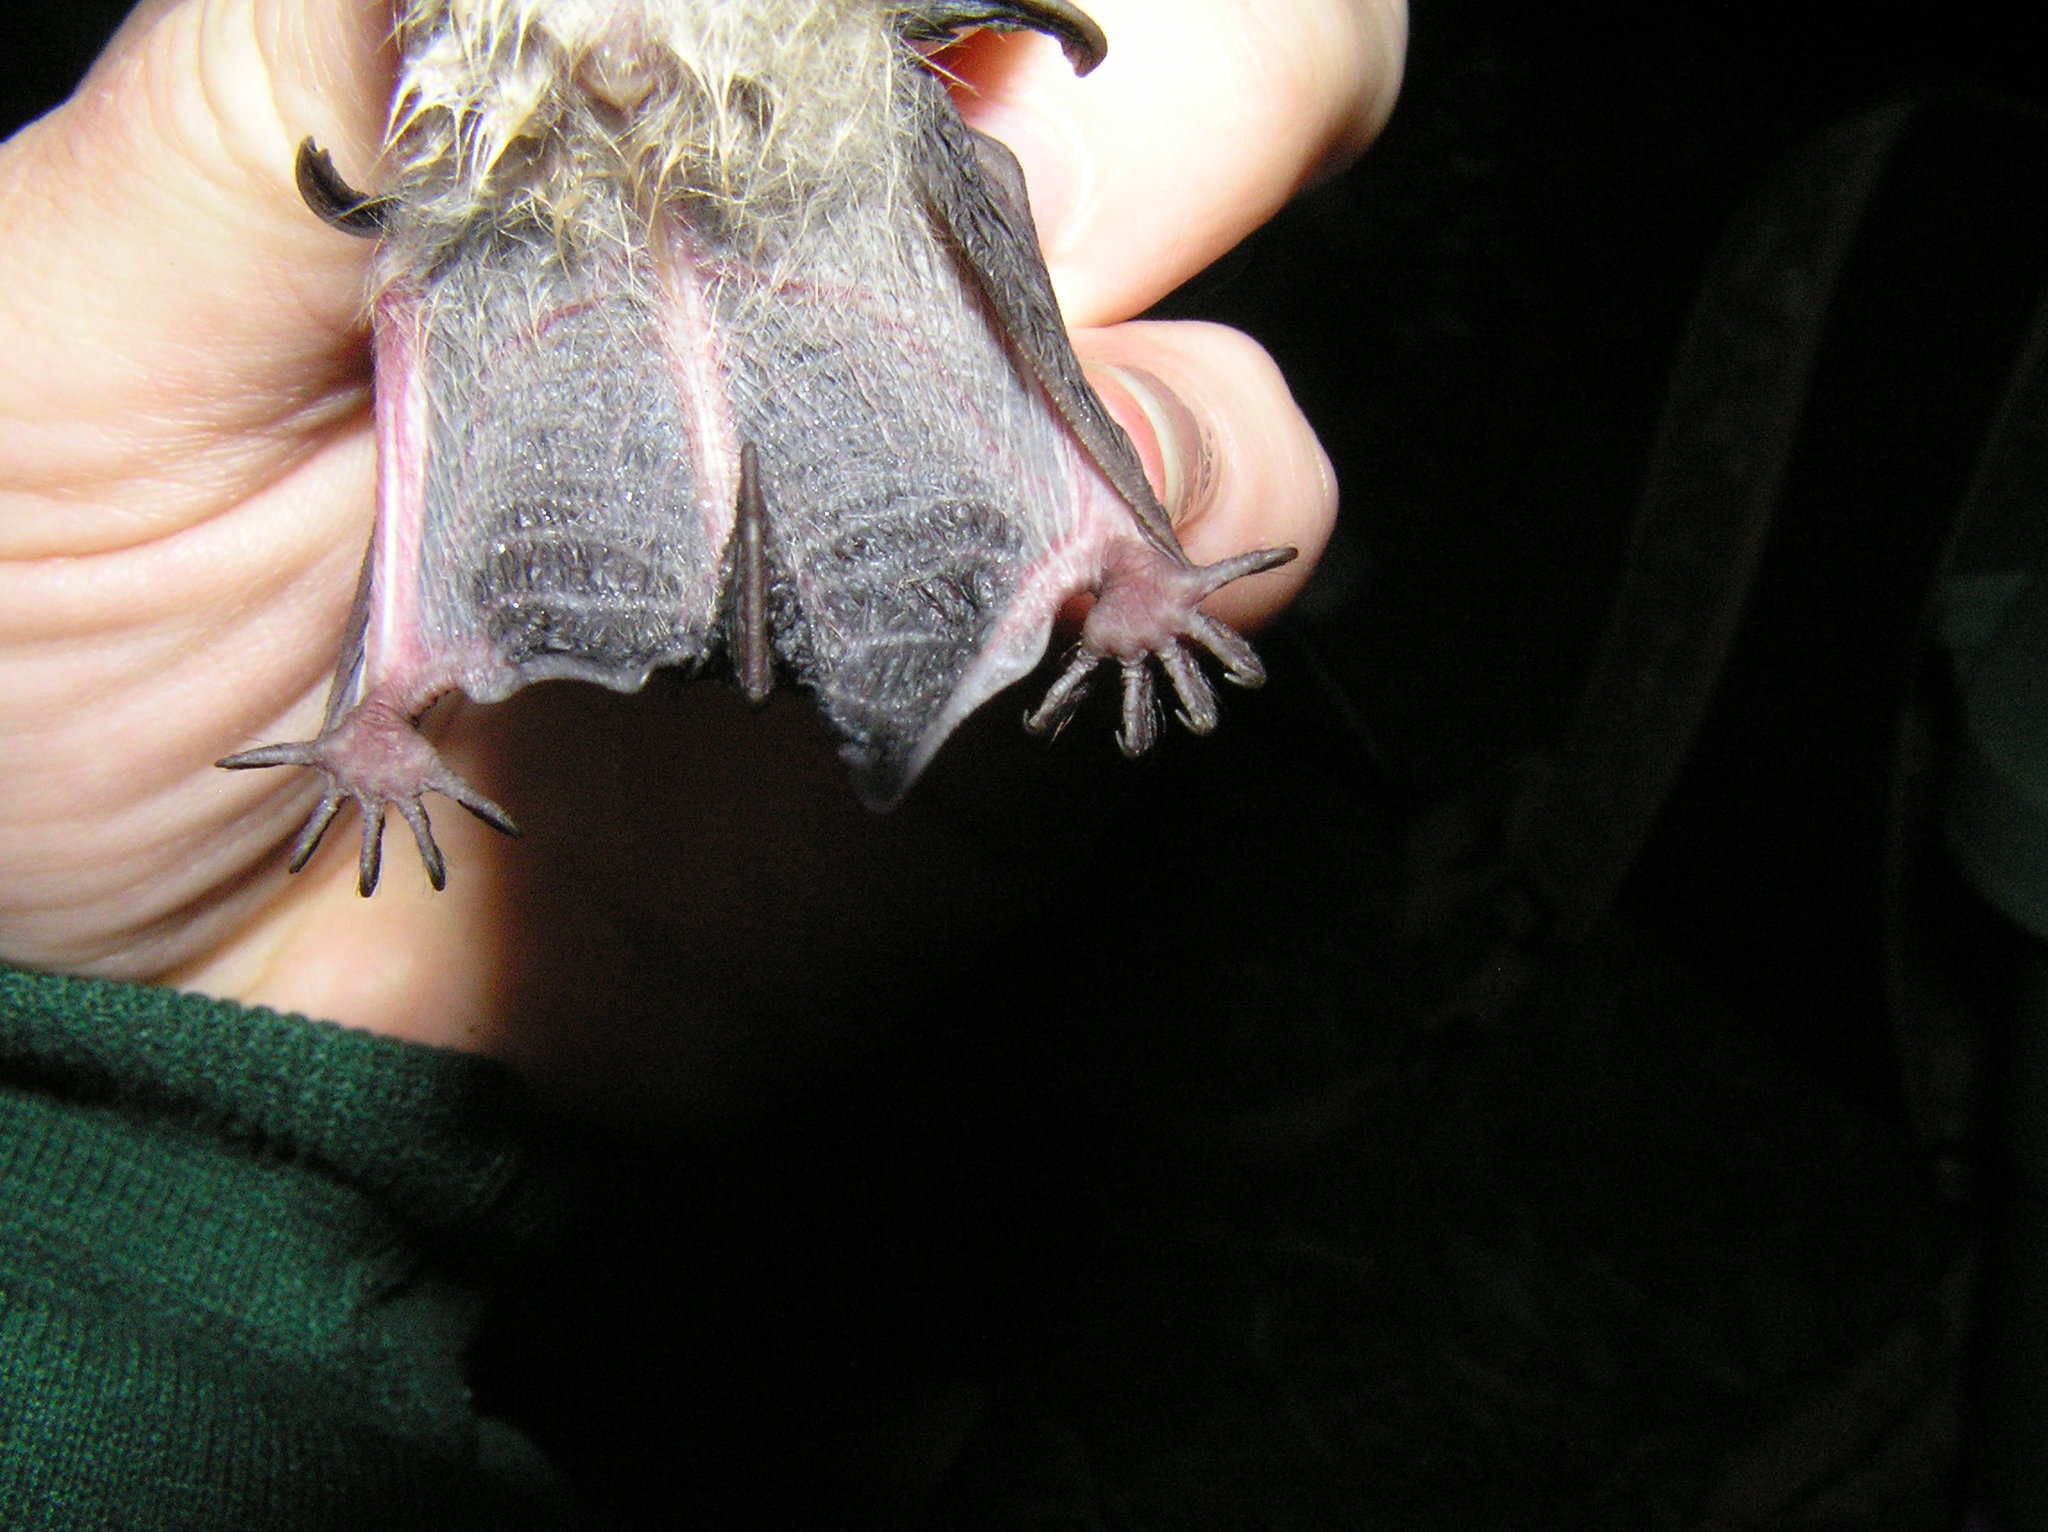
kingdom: Animalia
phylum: Chordata
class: Mammalia
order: Chiroptera
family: Vespertilionidae
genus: Myotis
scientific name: Myotis sodalis
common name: Indiana myotis
